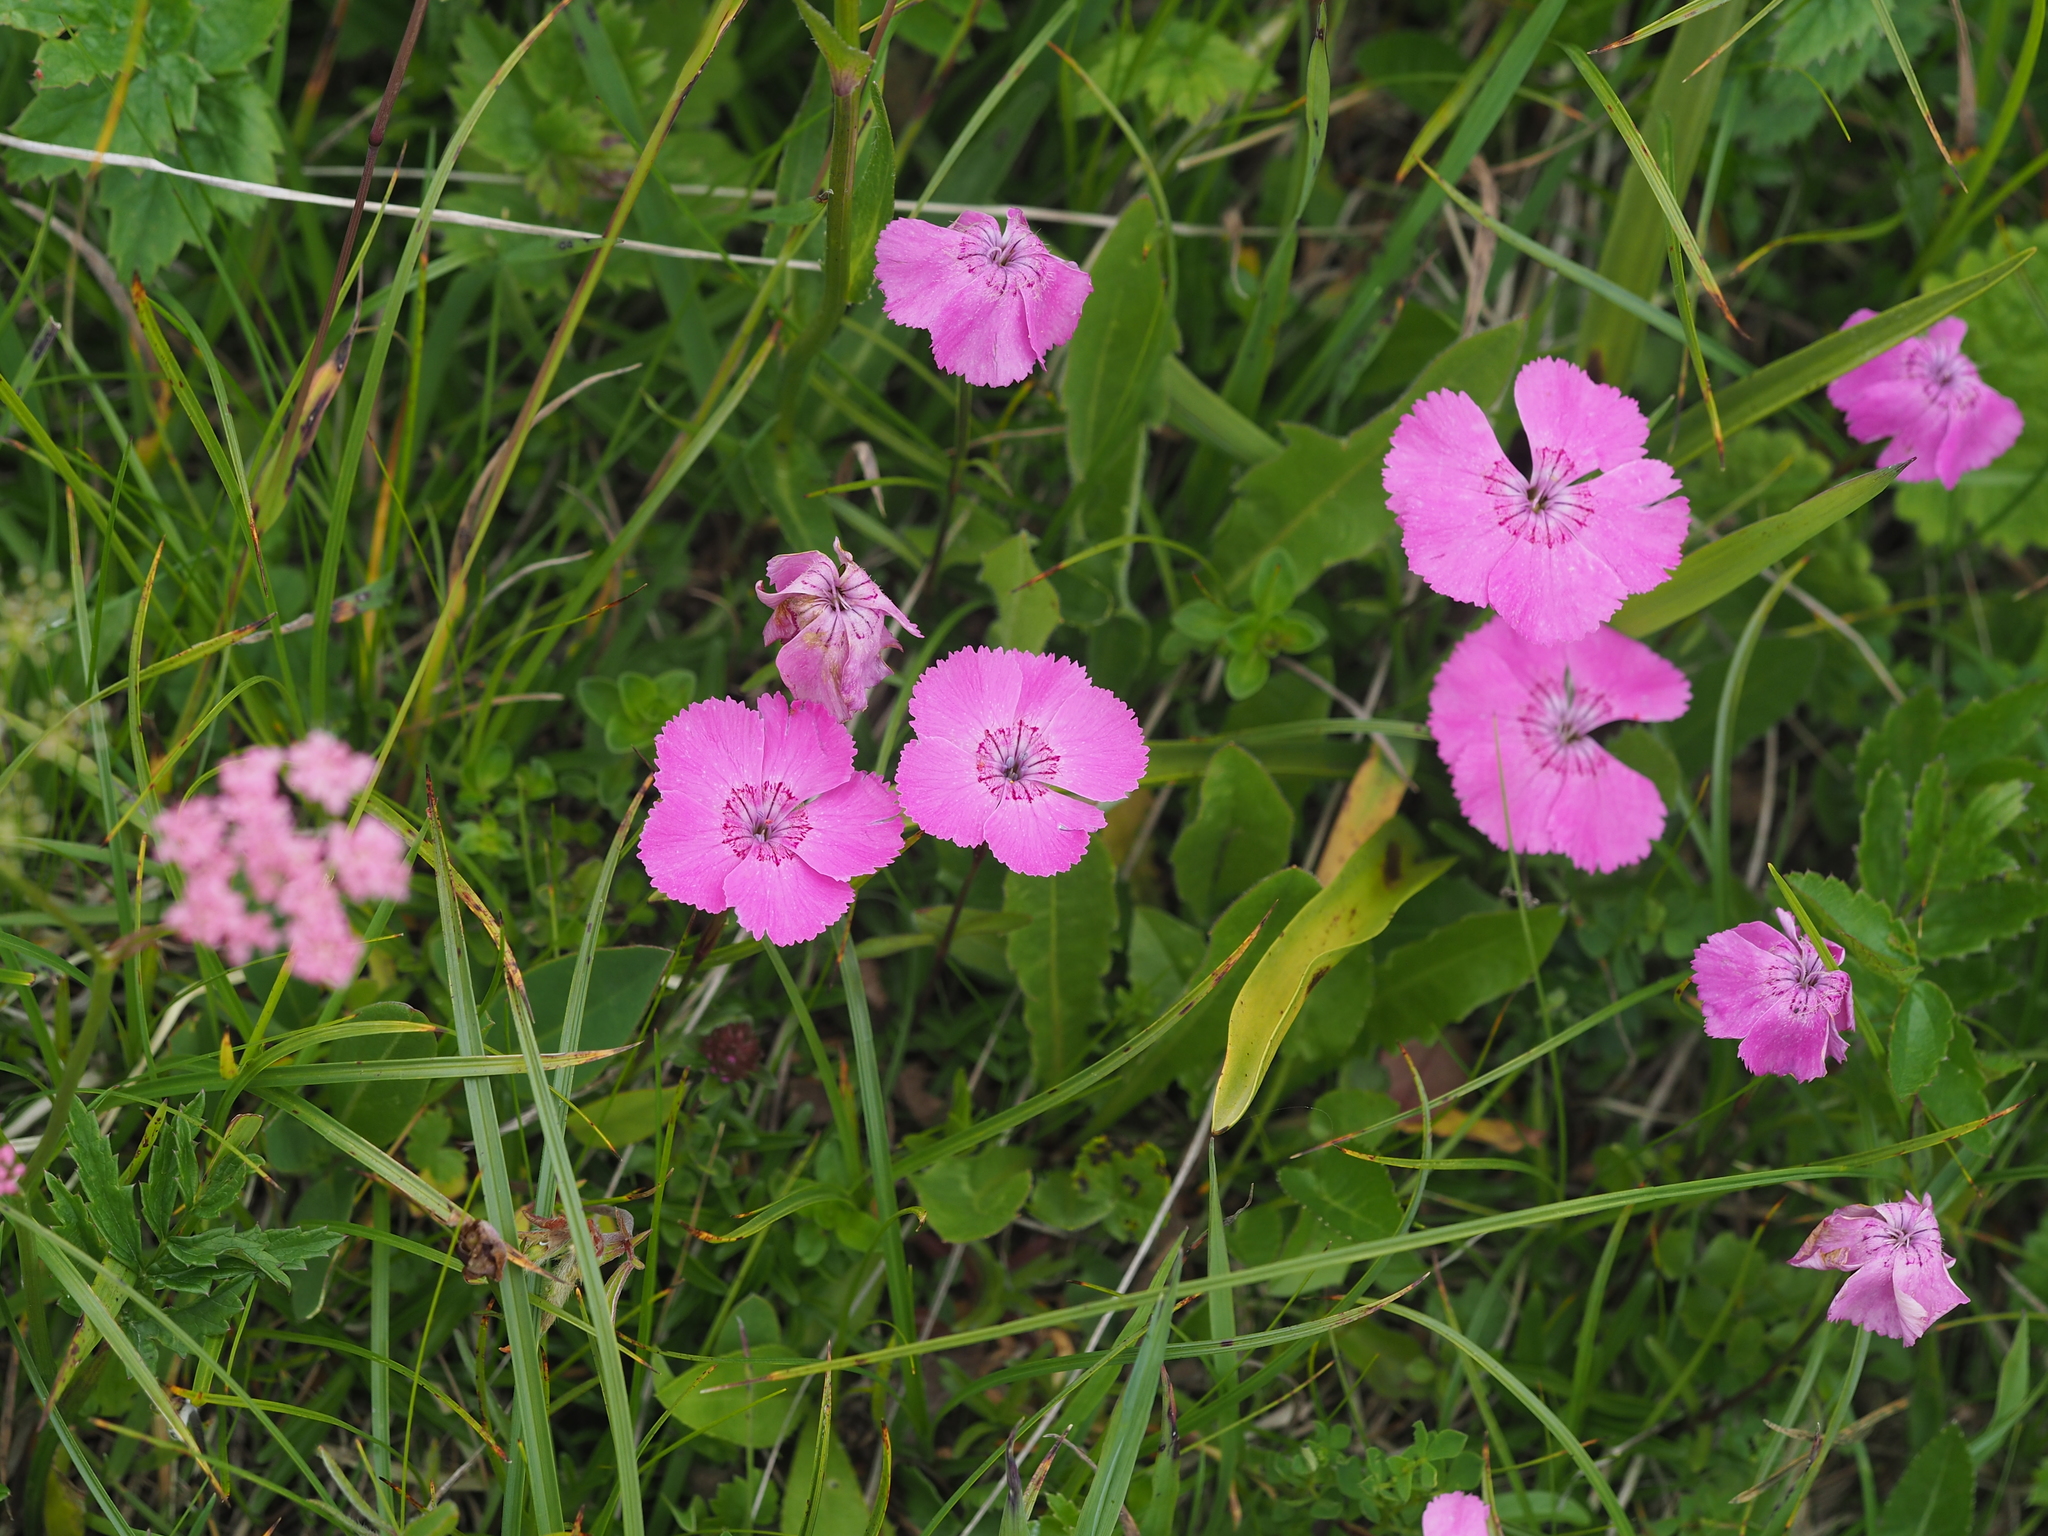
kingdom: Plantae
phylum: Tracheophyta
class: Magnoliopsida
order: Caryophyllales
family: Caryophyllaceae
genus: Dianthus
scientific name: Dianthus alpinus
